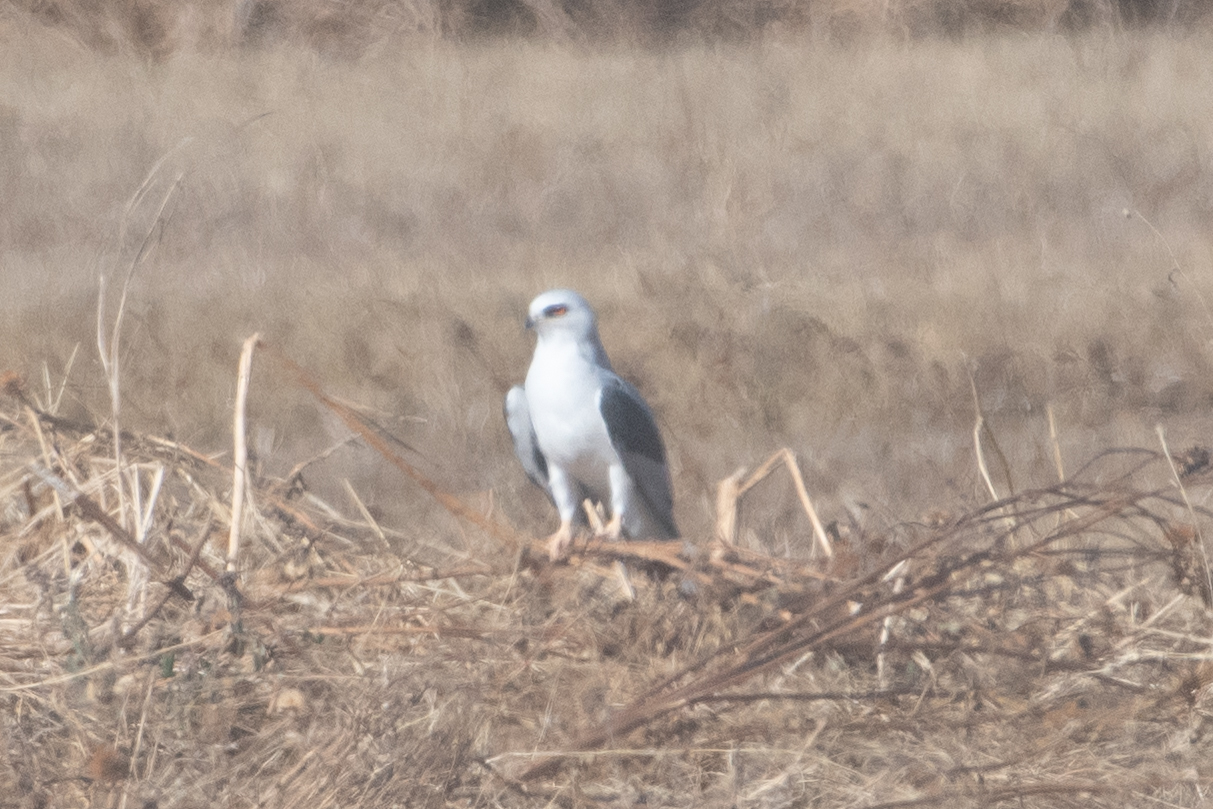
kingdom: Animalia
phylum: Chordata
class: Aves
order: Accipitriformes
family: Accipitridae
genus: Elanus
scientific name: Elanus leucurus
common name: White-tailed kite
